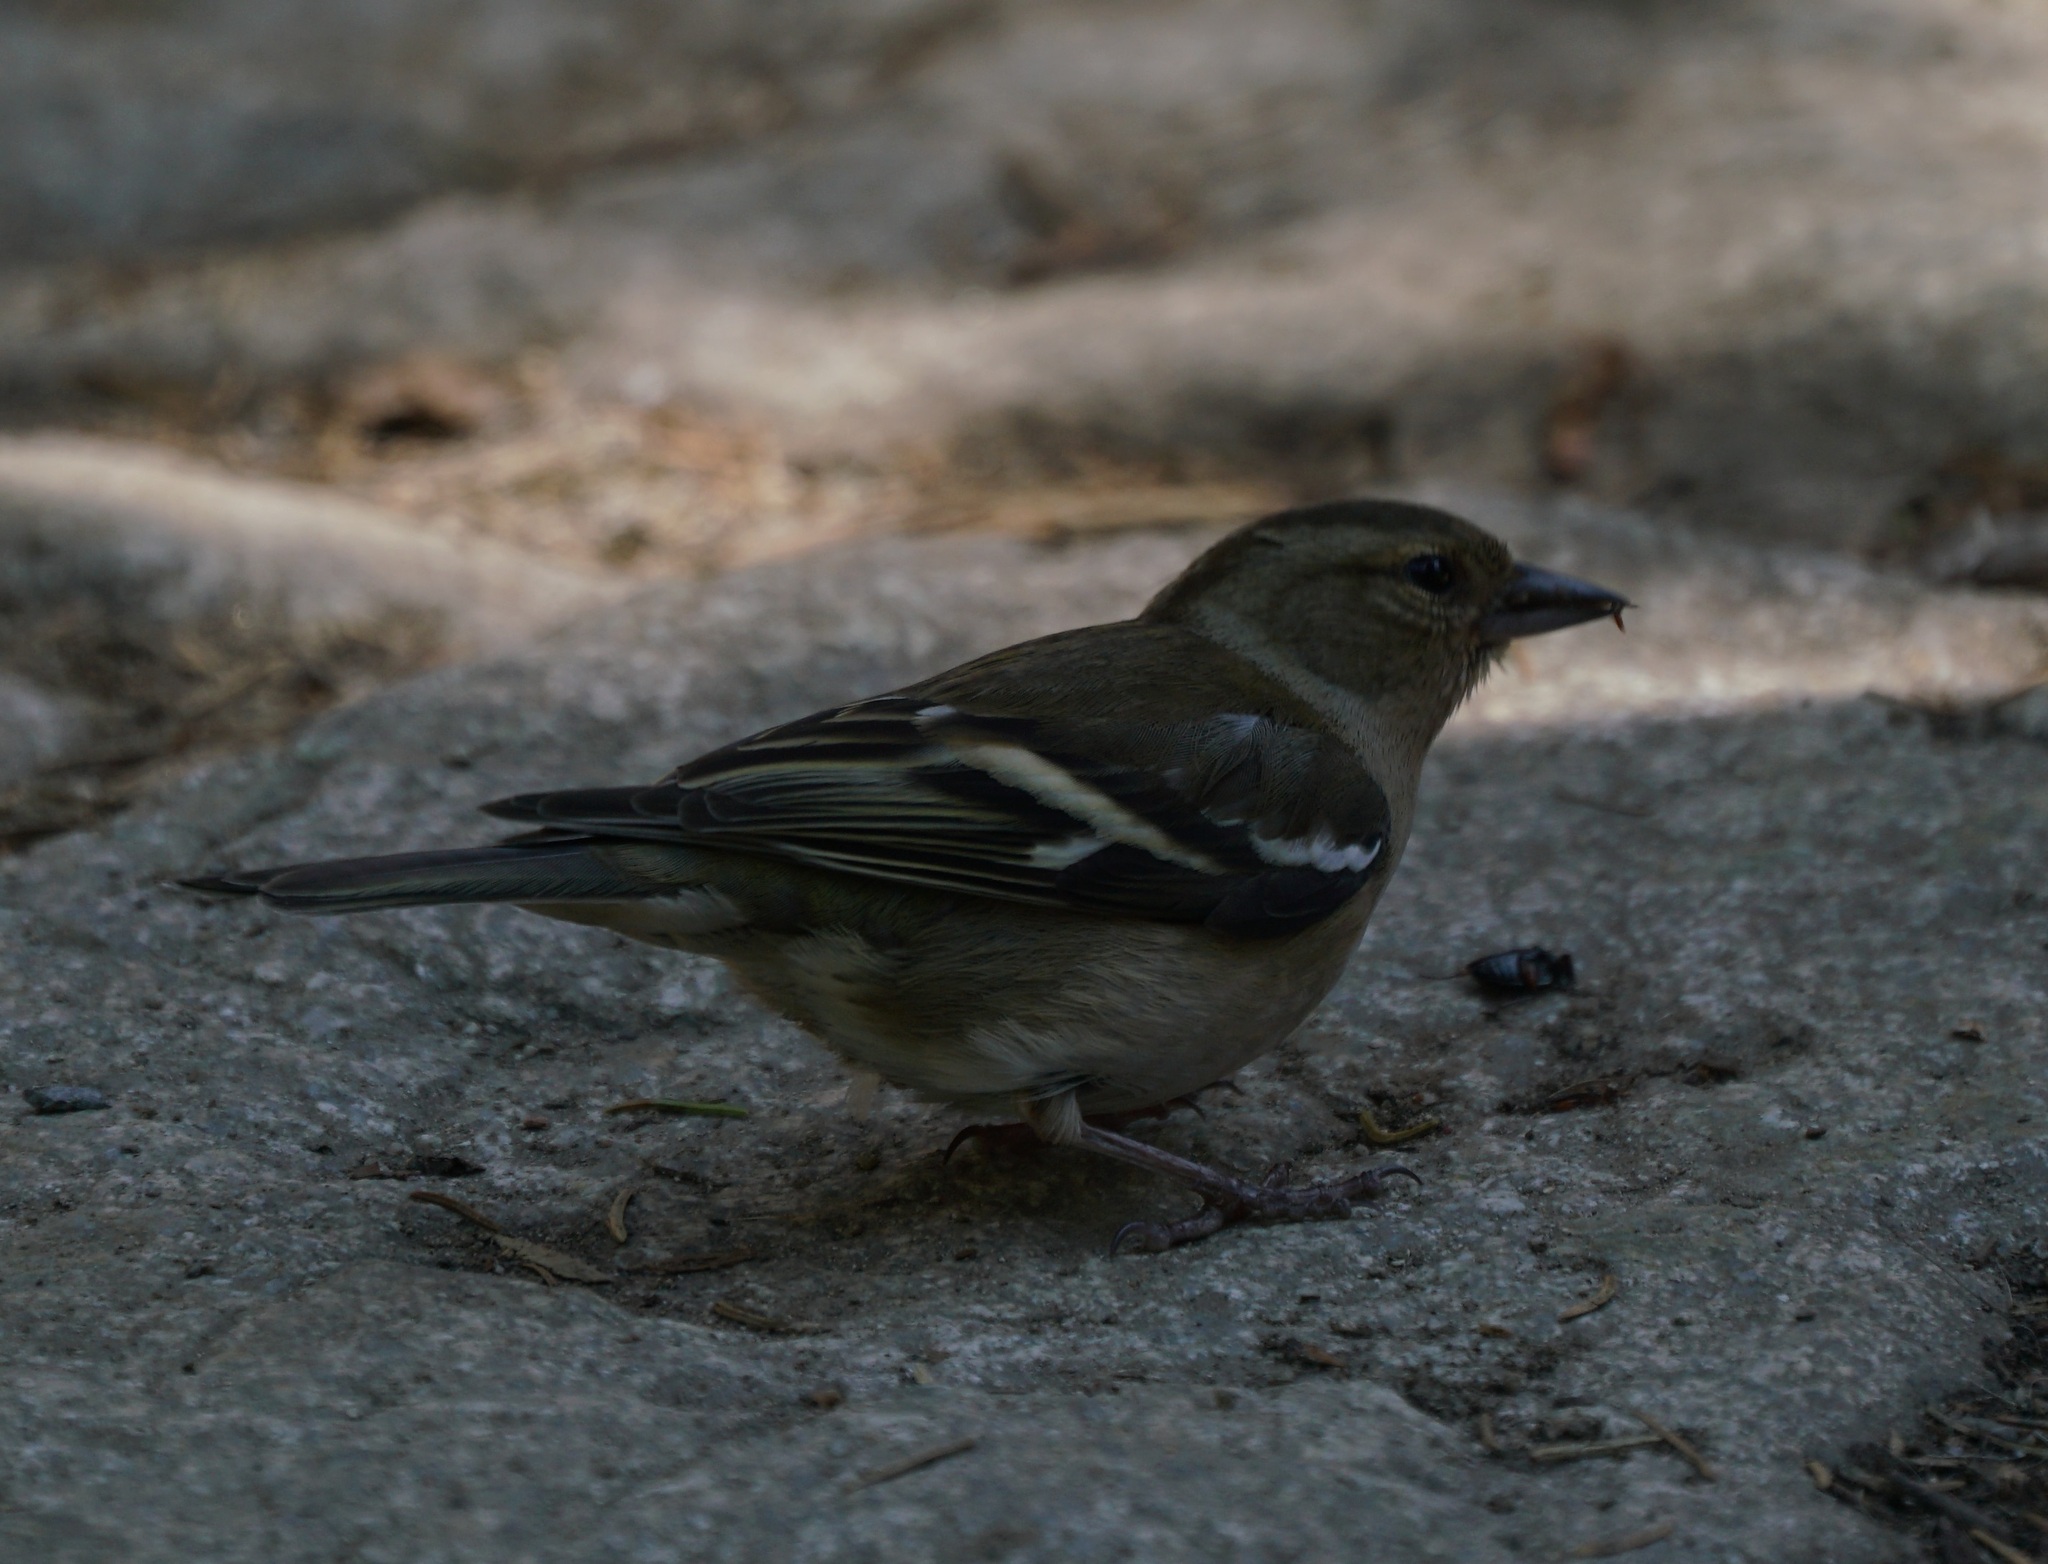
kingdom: Animalia
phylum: Chordata
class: Aves
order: Passeriformes
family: Fringillidae
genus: Fringilla
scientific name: Fringilla coelebs
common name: Common chaffinch
